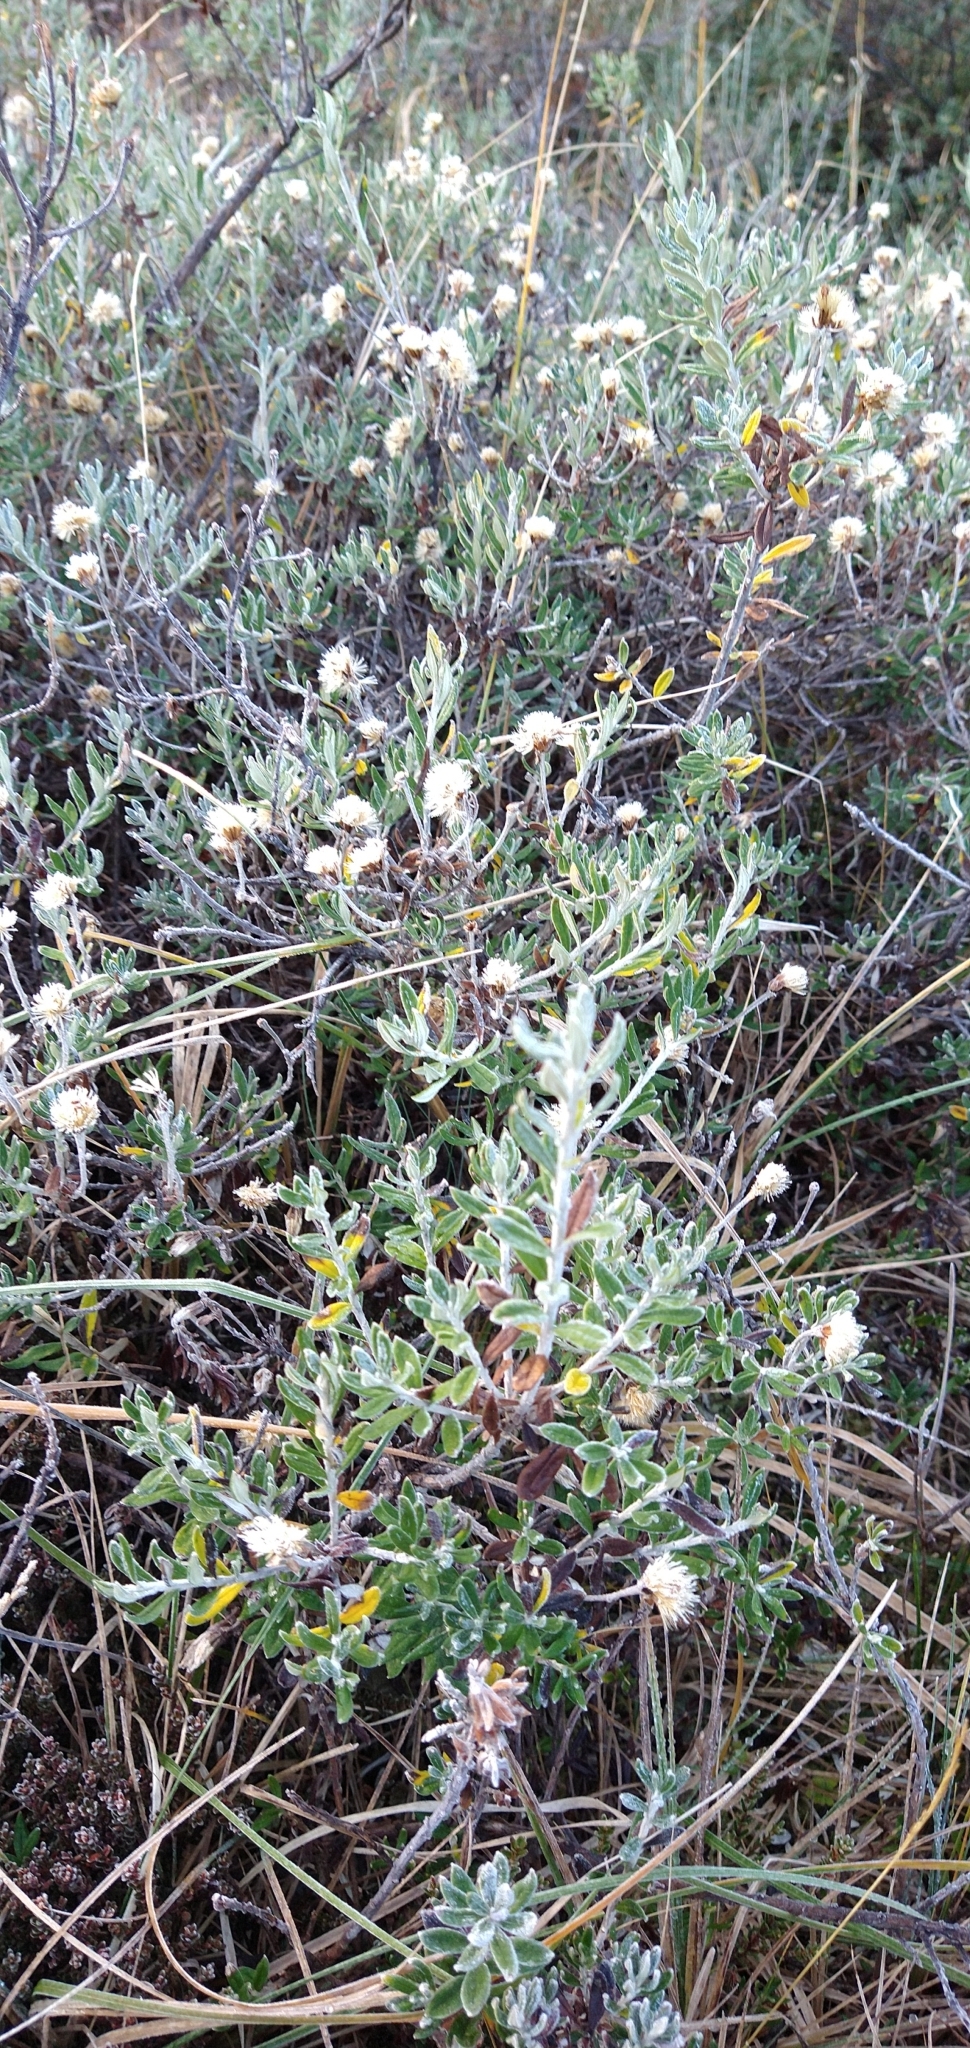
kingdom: Plantae
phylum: Tracheophyta
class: Magnoliopsida
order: Asterales
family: Asteraceae
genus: Chiliotrichum
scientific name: Chiliotrichum diffusum
